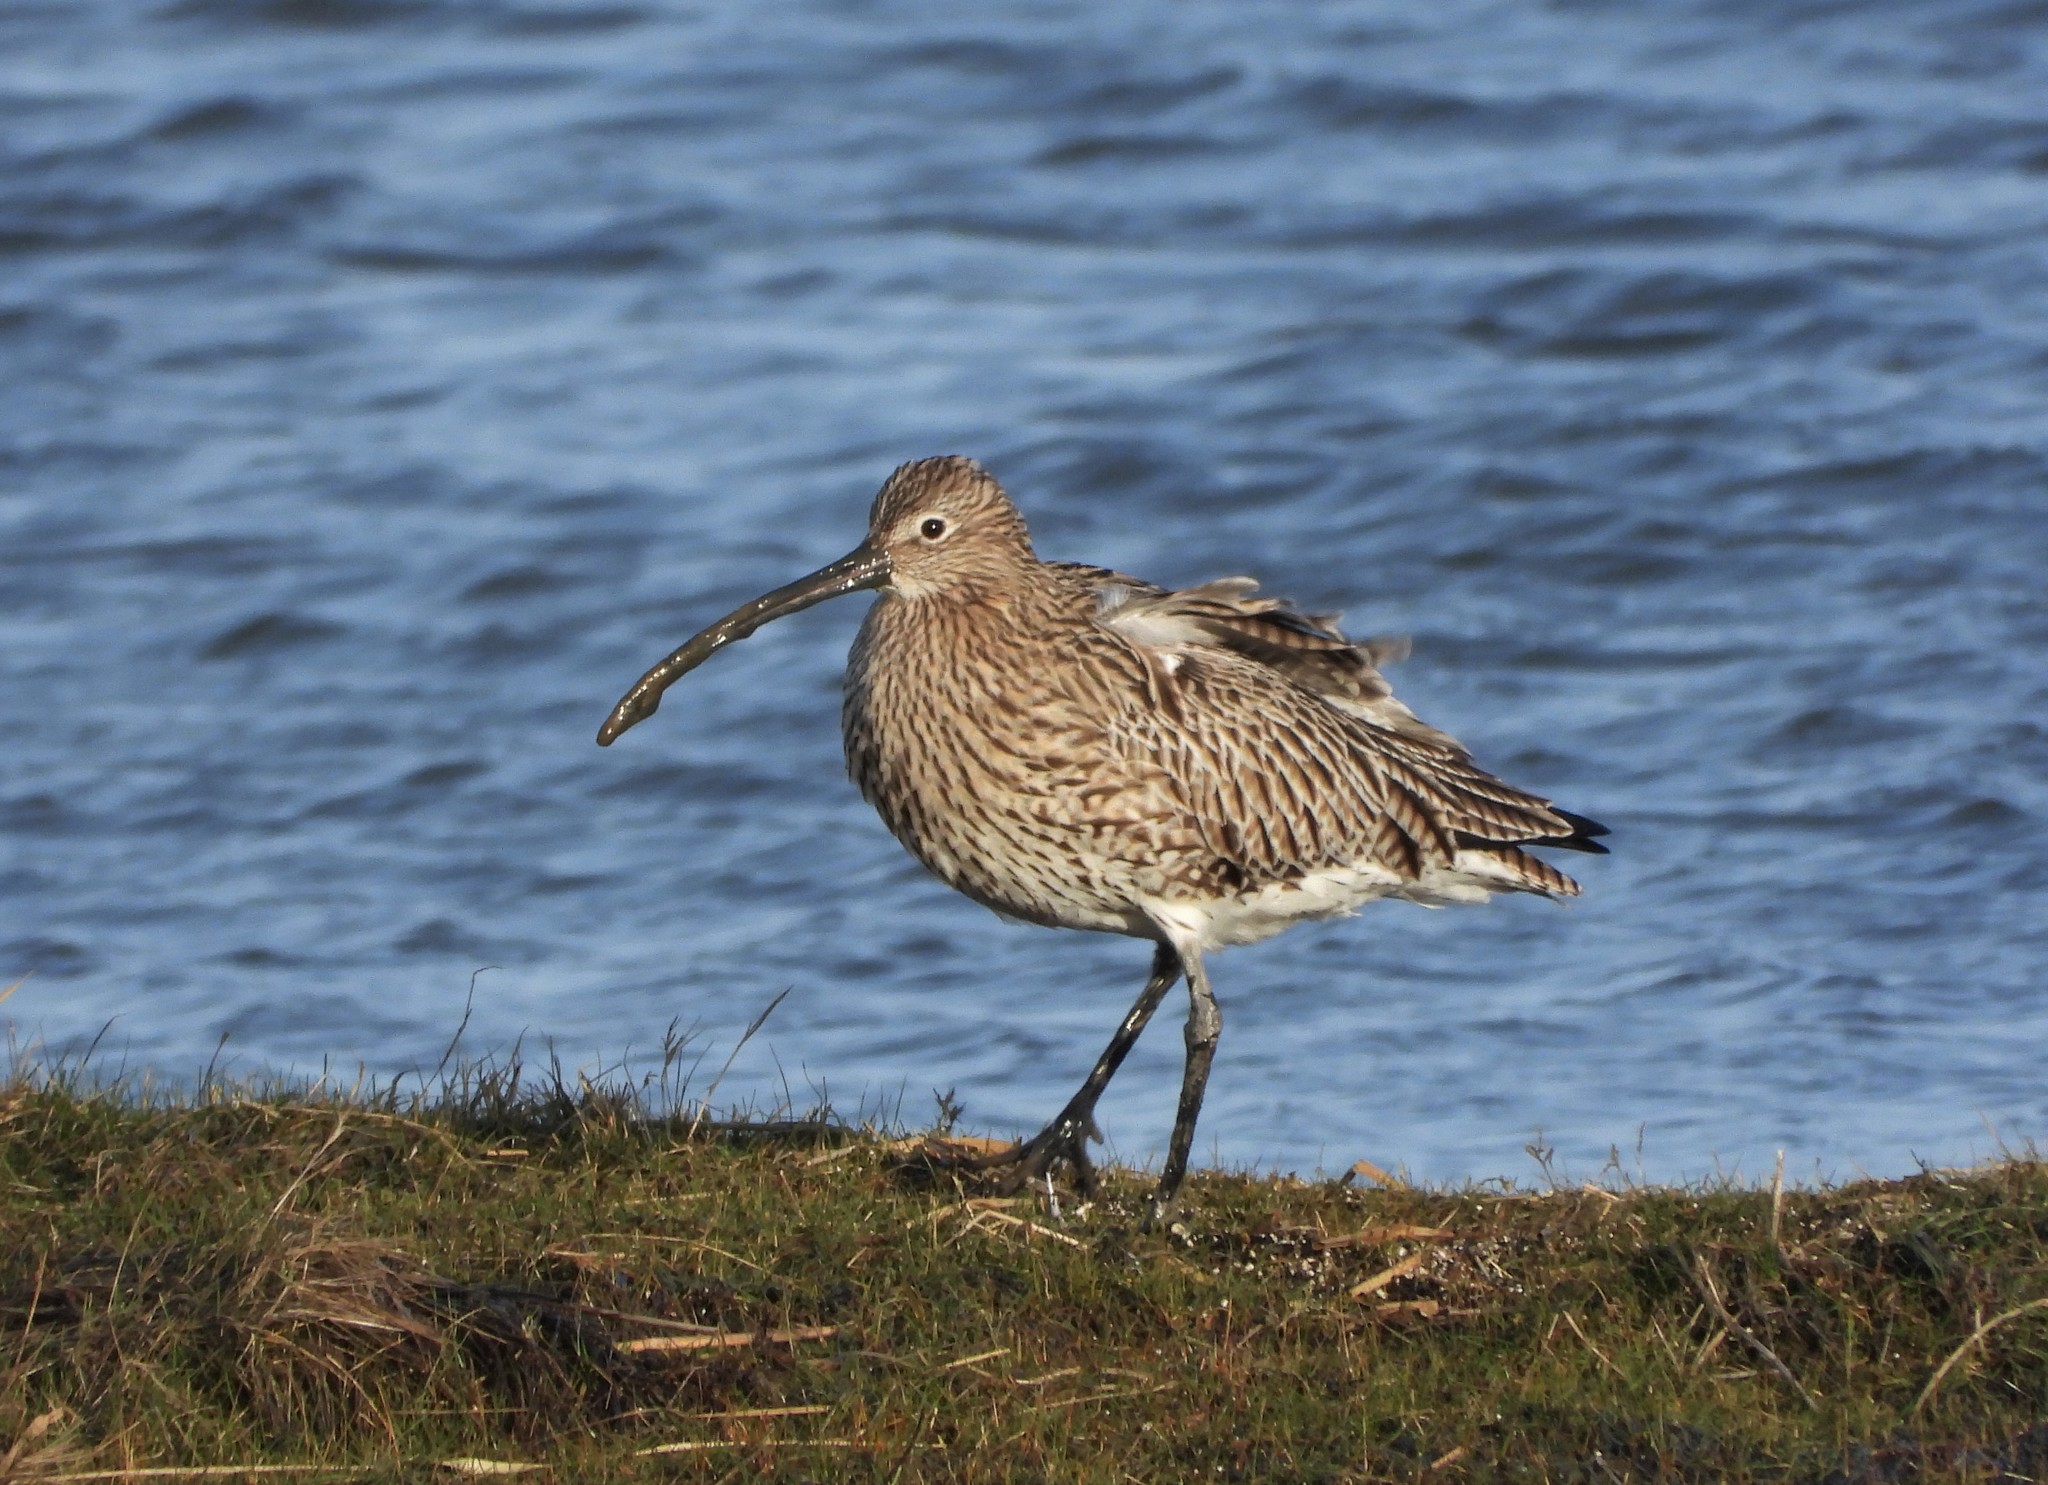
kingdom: Animalia
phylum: Chordata
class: Aves
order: Charadriiformes
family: Scolopacidae
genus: Numenius
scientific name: Numenius arquata
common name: Eurasian curlew
